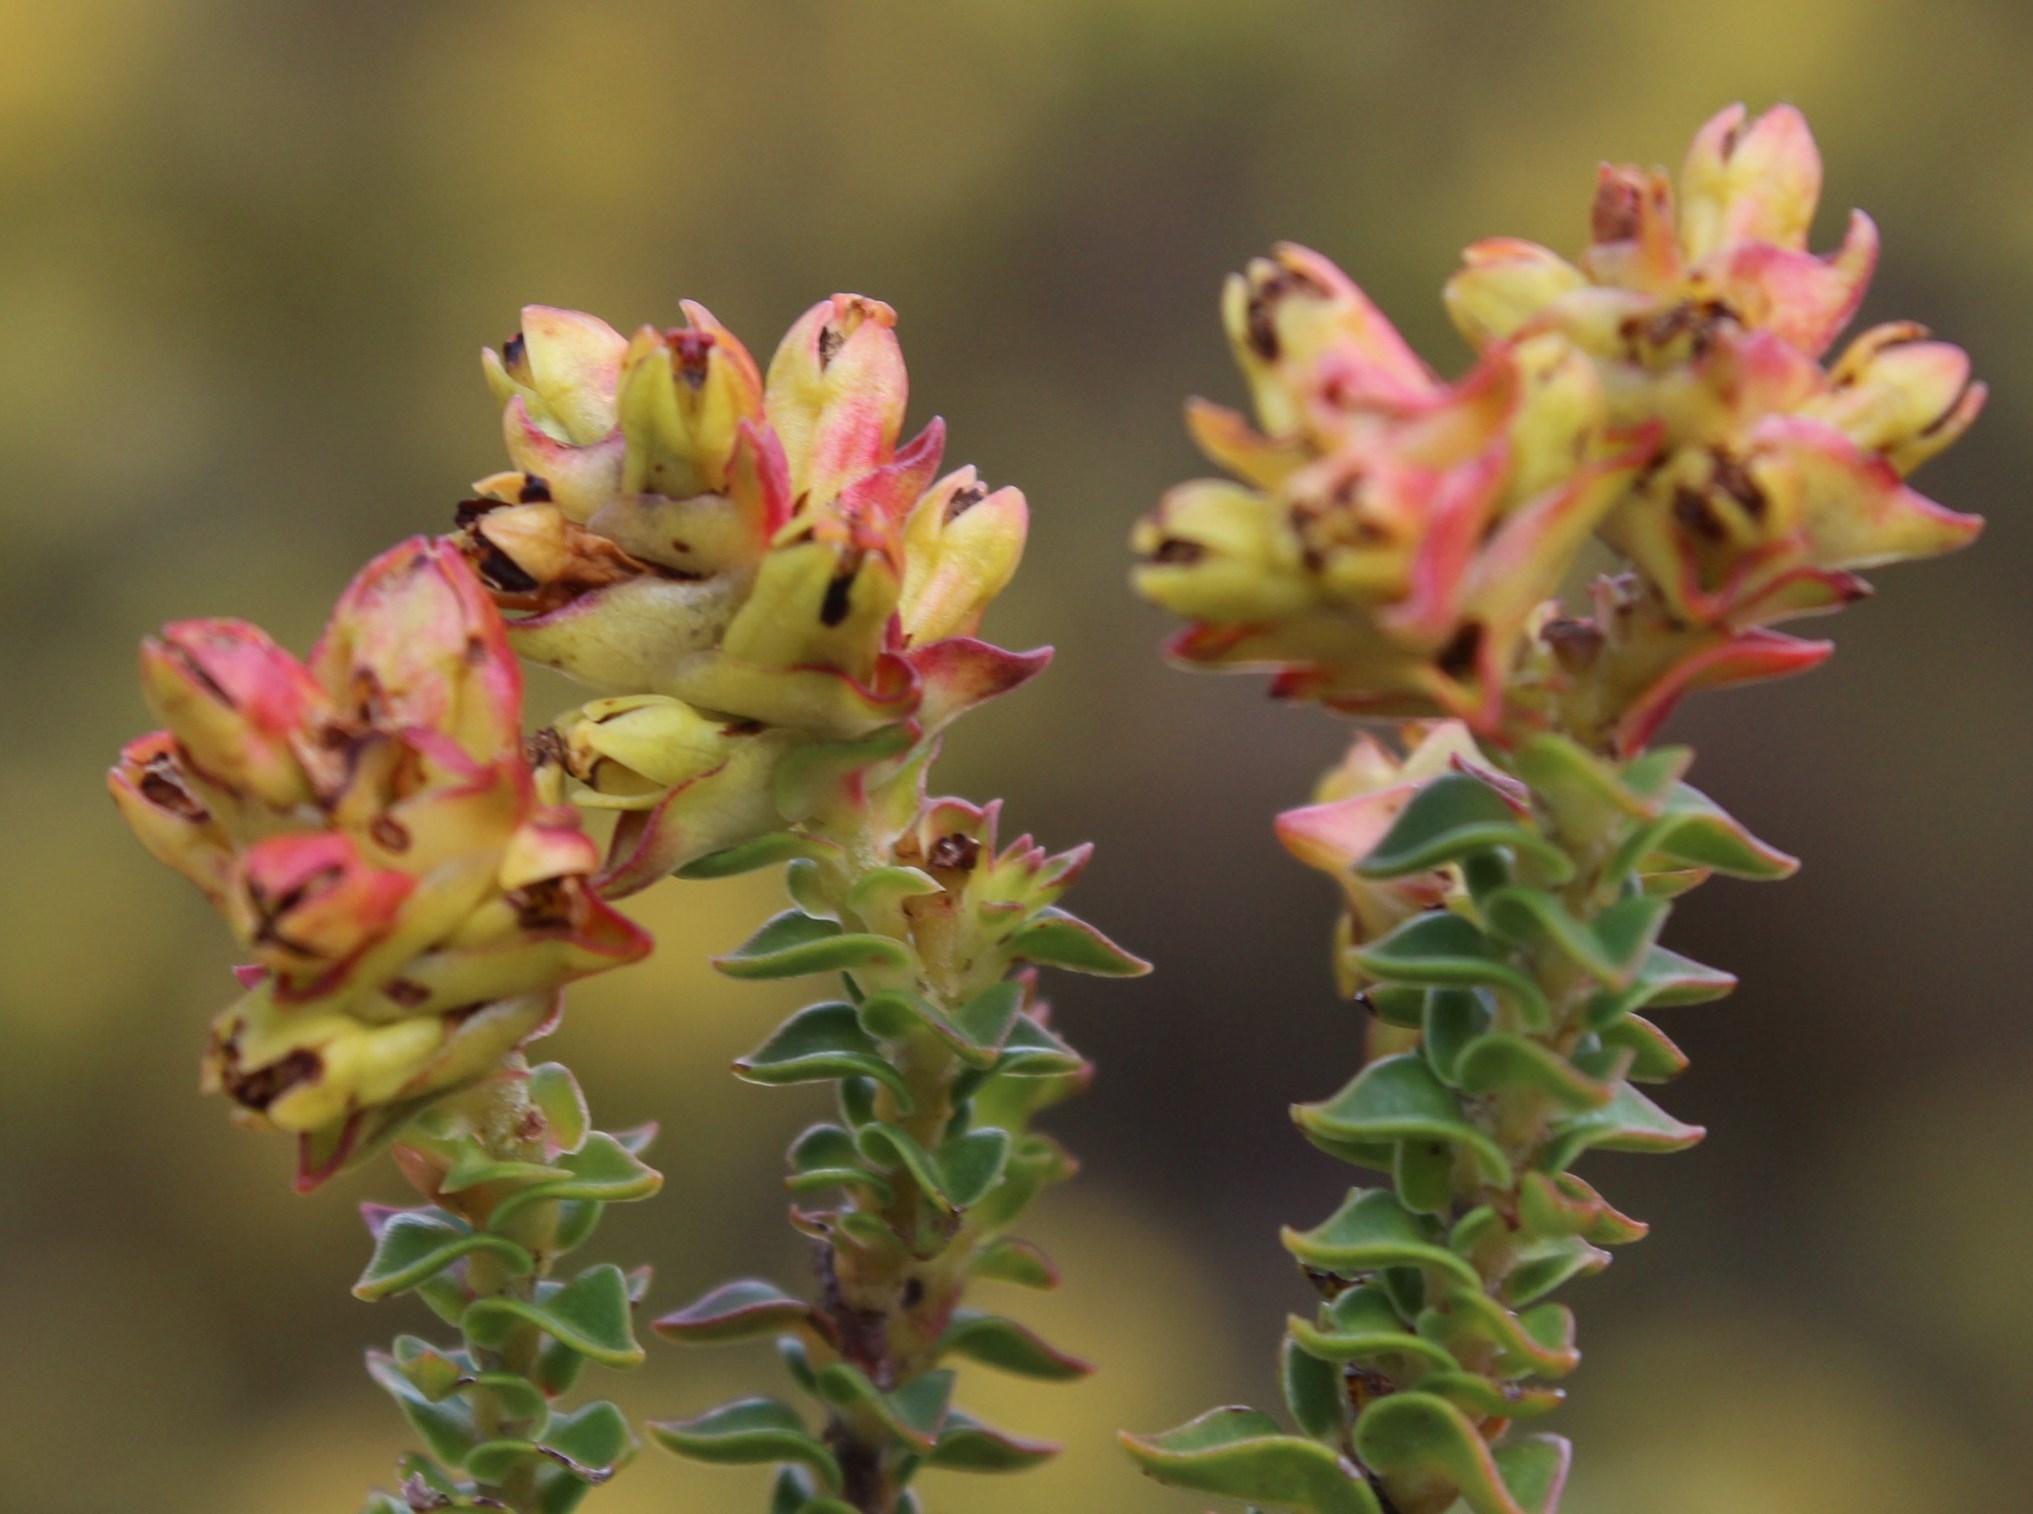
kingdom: Plantae
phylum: Tracheophyta
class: Magnoliopsida
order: Myrtales
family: Penaeaceae
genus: Penaea
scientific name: Penaea mucronata
